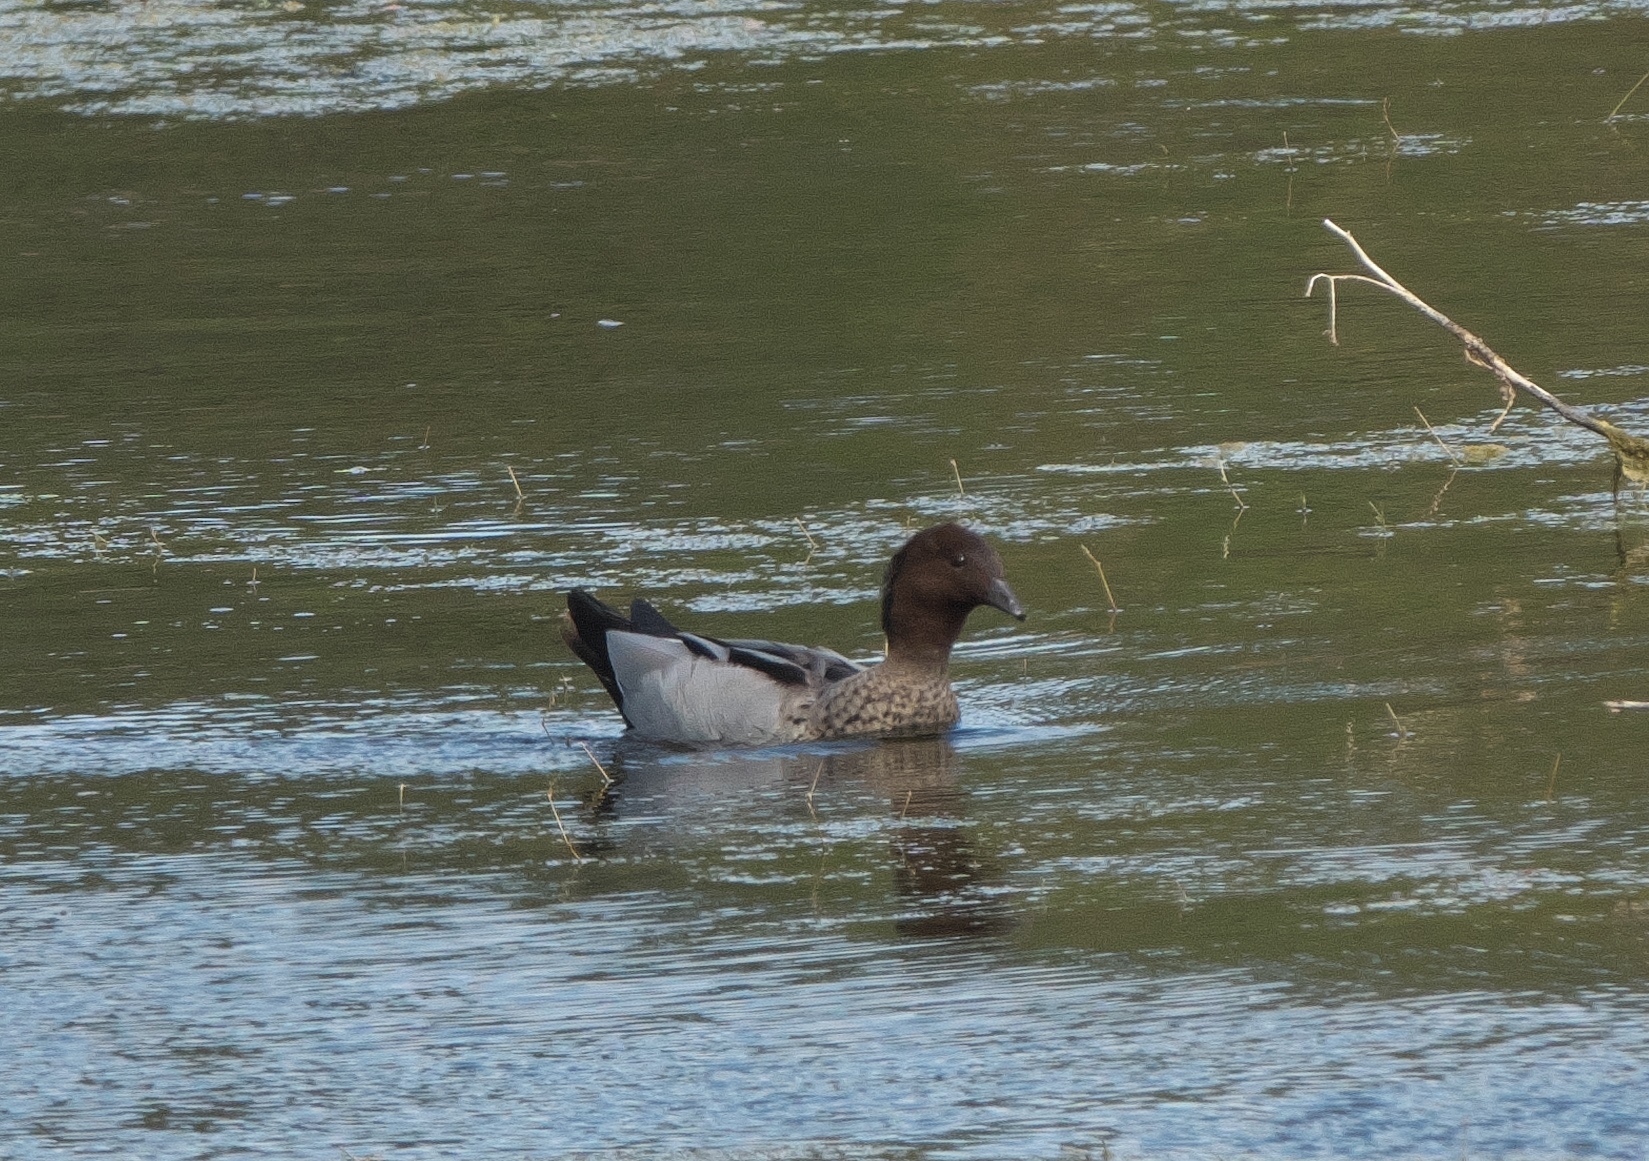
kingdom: Animalia
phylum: Chordata
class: Aves
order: Anseriformes
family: Anatidae
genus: Chenonetta
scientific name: Chenonetta jubata
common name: Maned duck
